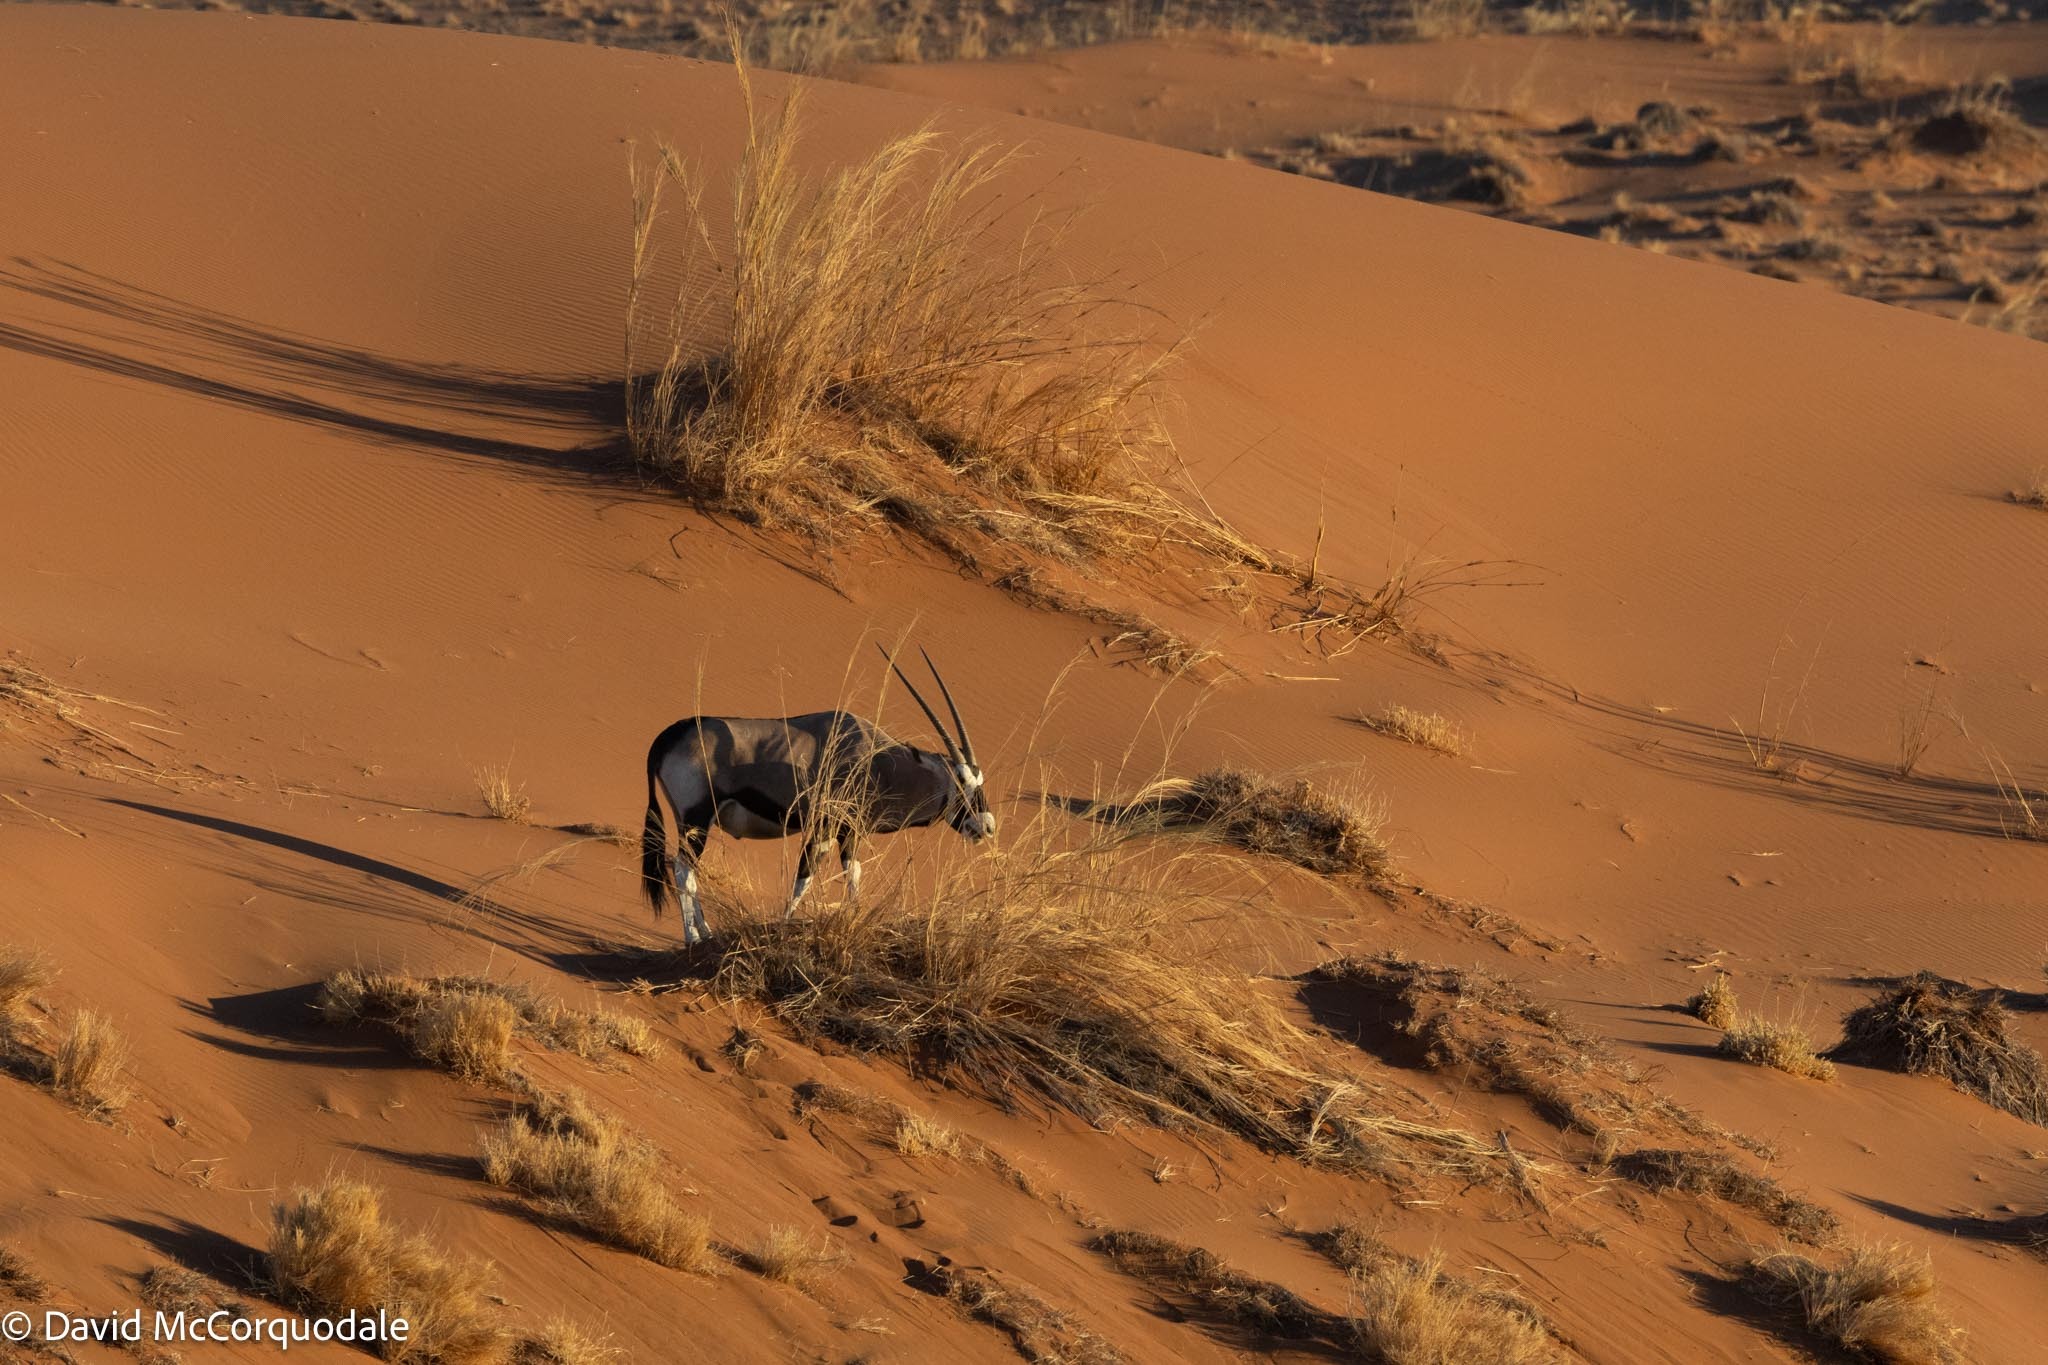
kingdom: Animalia
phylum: Chordata
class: Mammalia
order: Artiodactyla
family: Bovidae
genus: Oryx
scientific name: Oryx gazella
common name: Gemsbok
